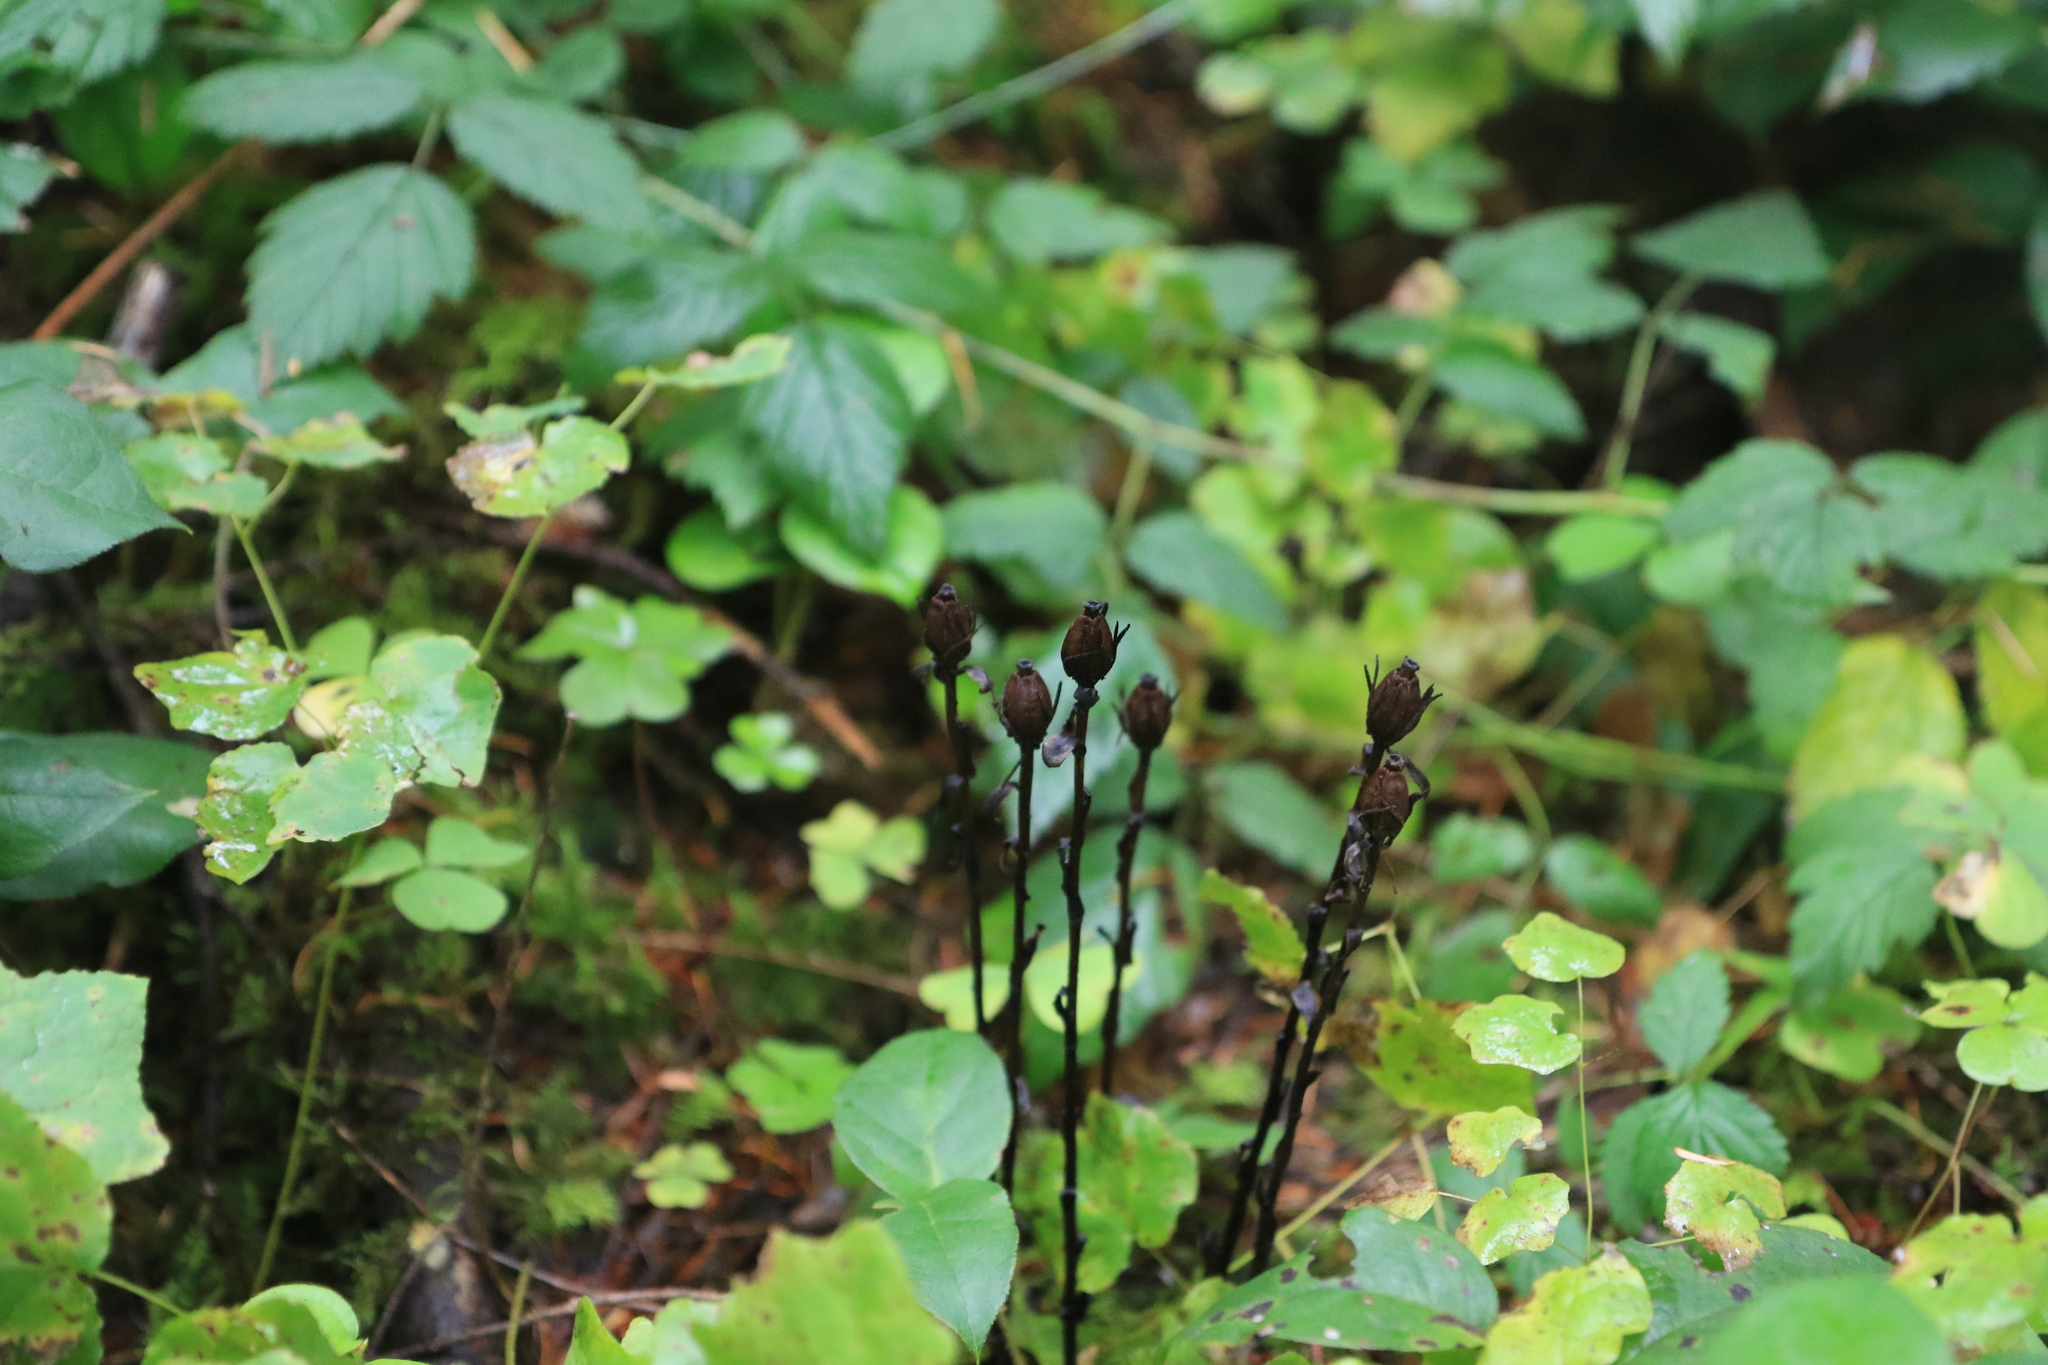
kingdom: Plantae
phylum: Tracheophyta
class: Magnoliopsida
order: Ericales
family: Ericaceae
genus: Monotropa
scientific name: Monotropa uniflora
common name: Convulsion root
